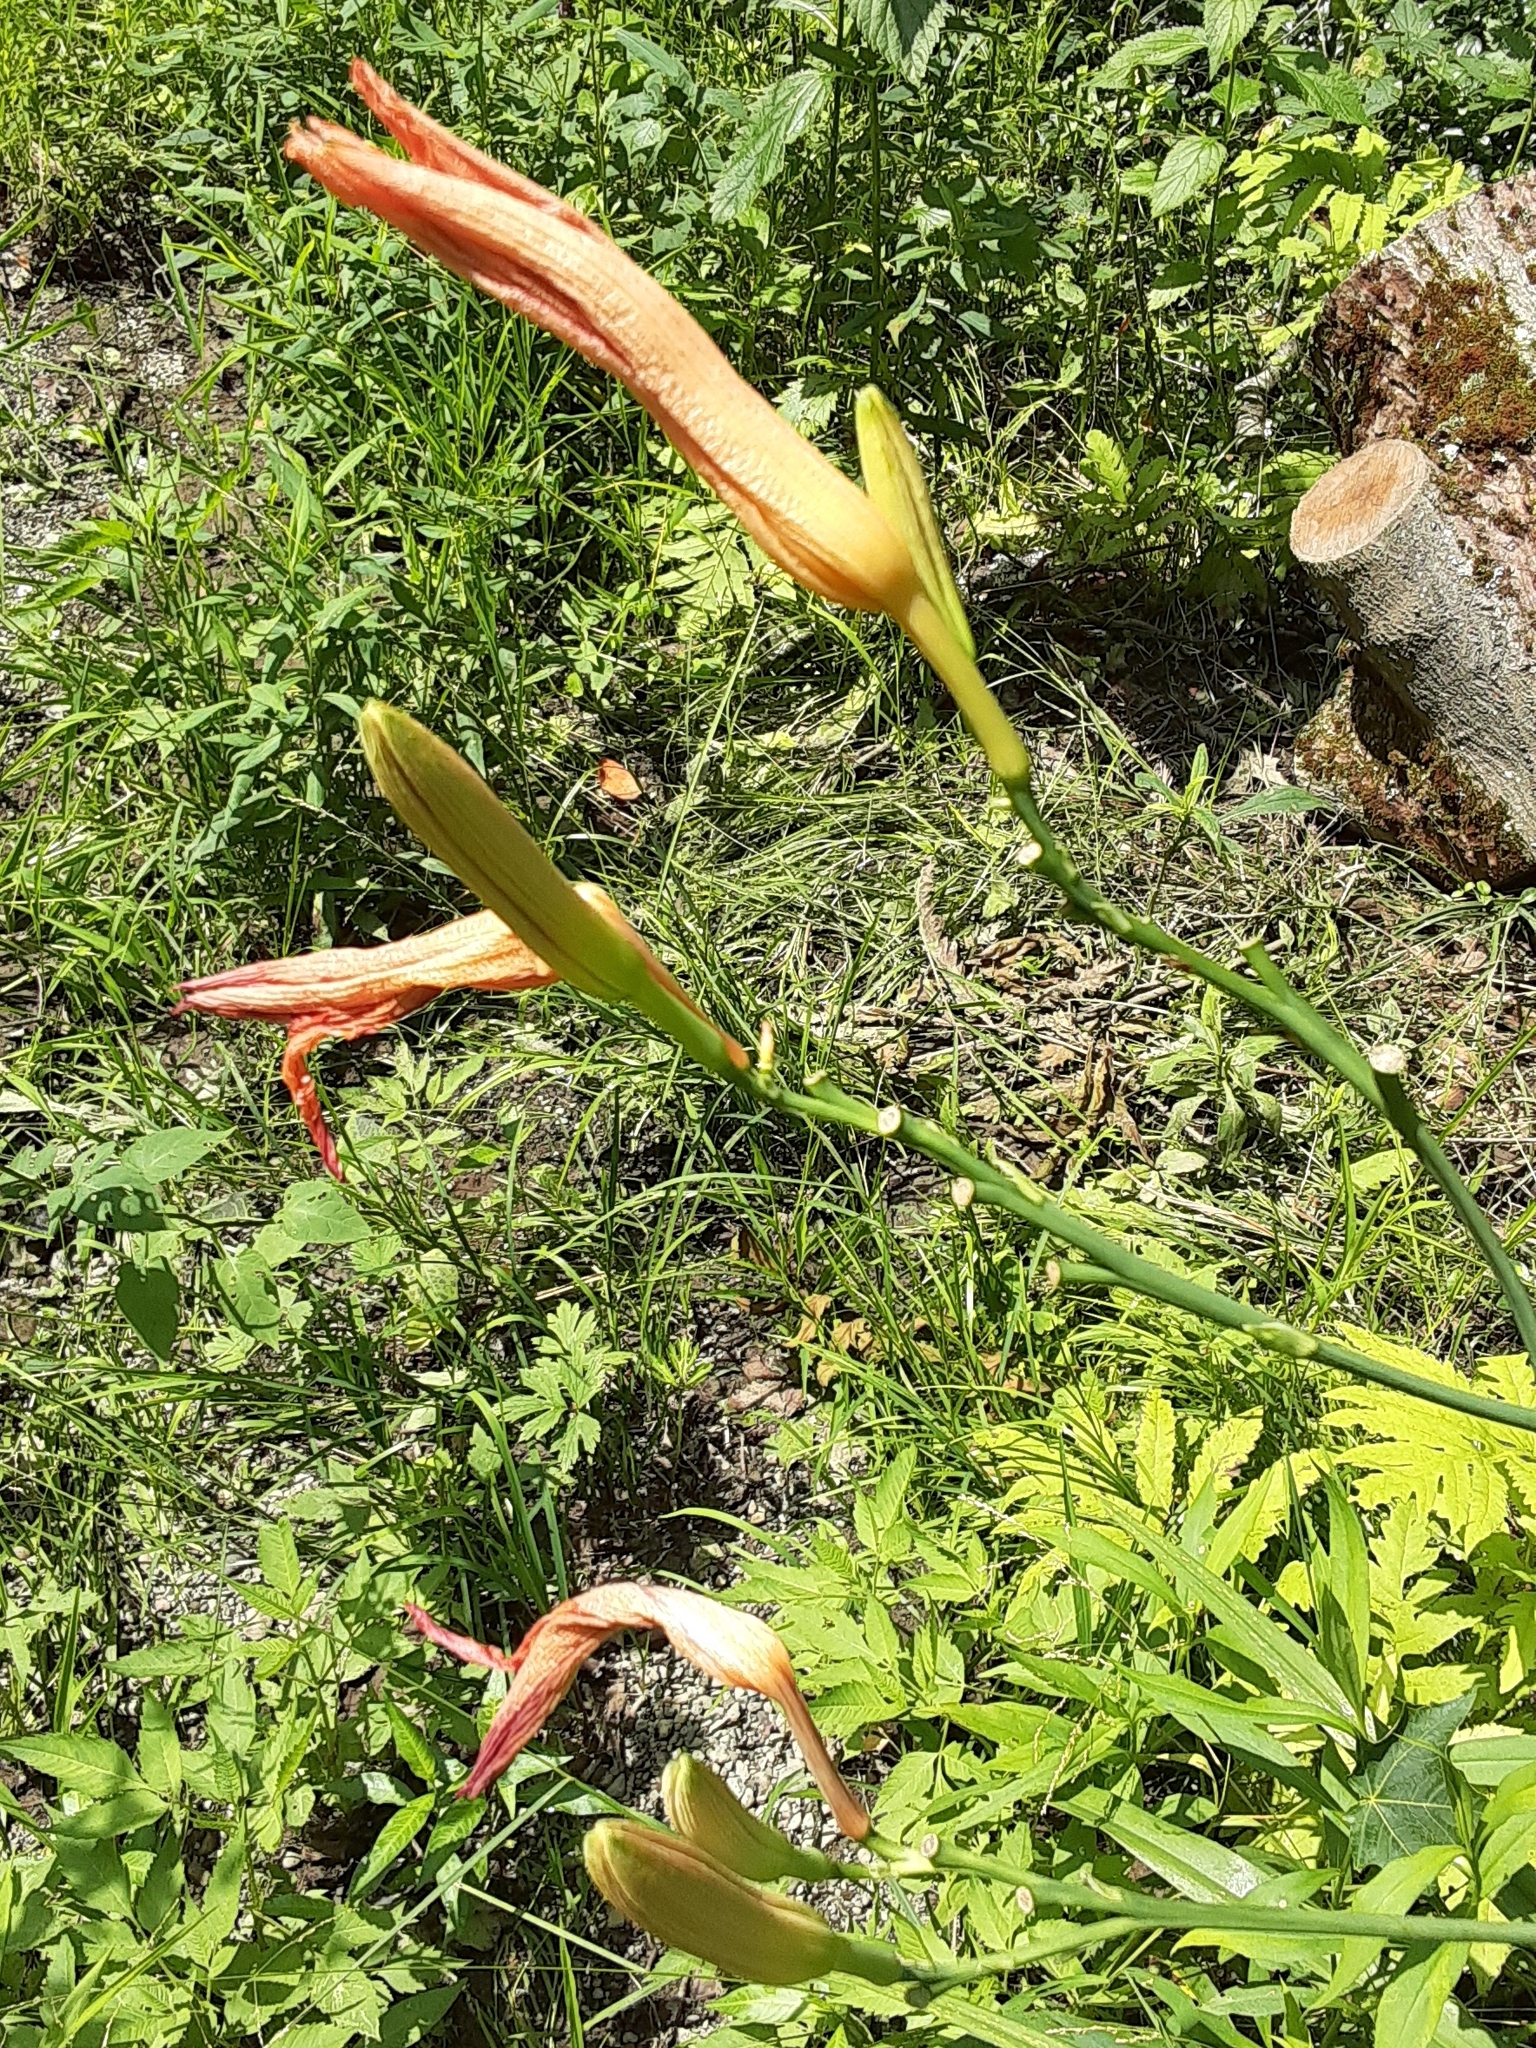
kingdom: Plantae
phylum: Tracheophyta
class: Liliopsida
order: Asparagales
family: Asphodelaceae
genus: Hemerocallis
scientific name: Hemerocallis fulva
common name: Orange day-lily
